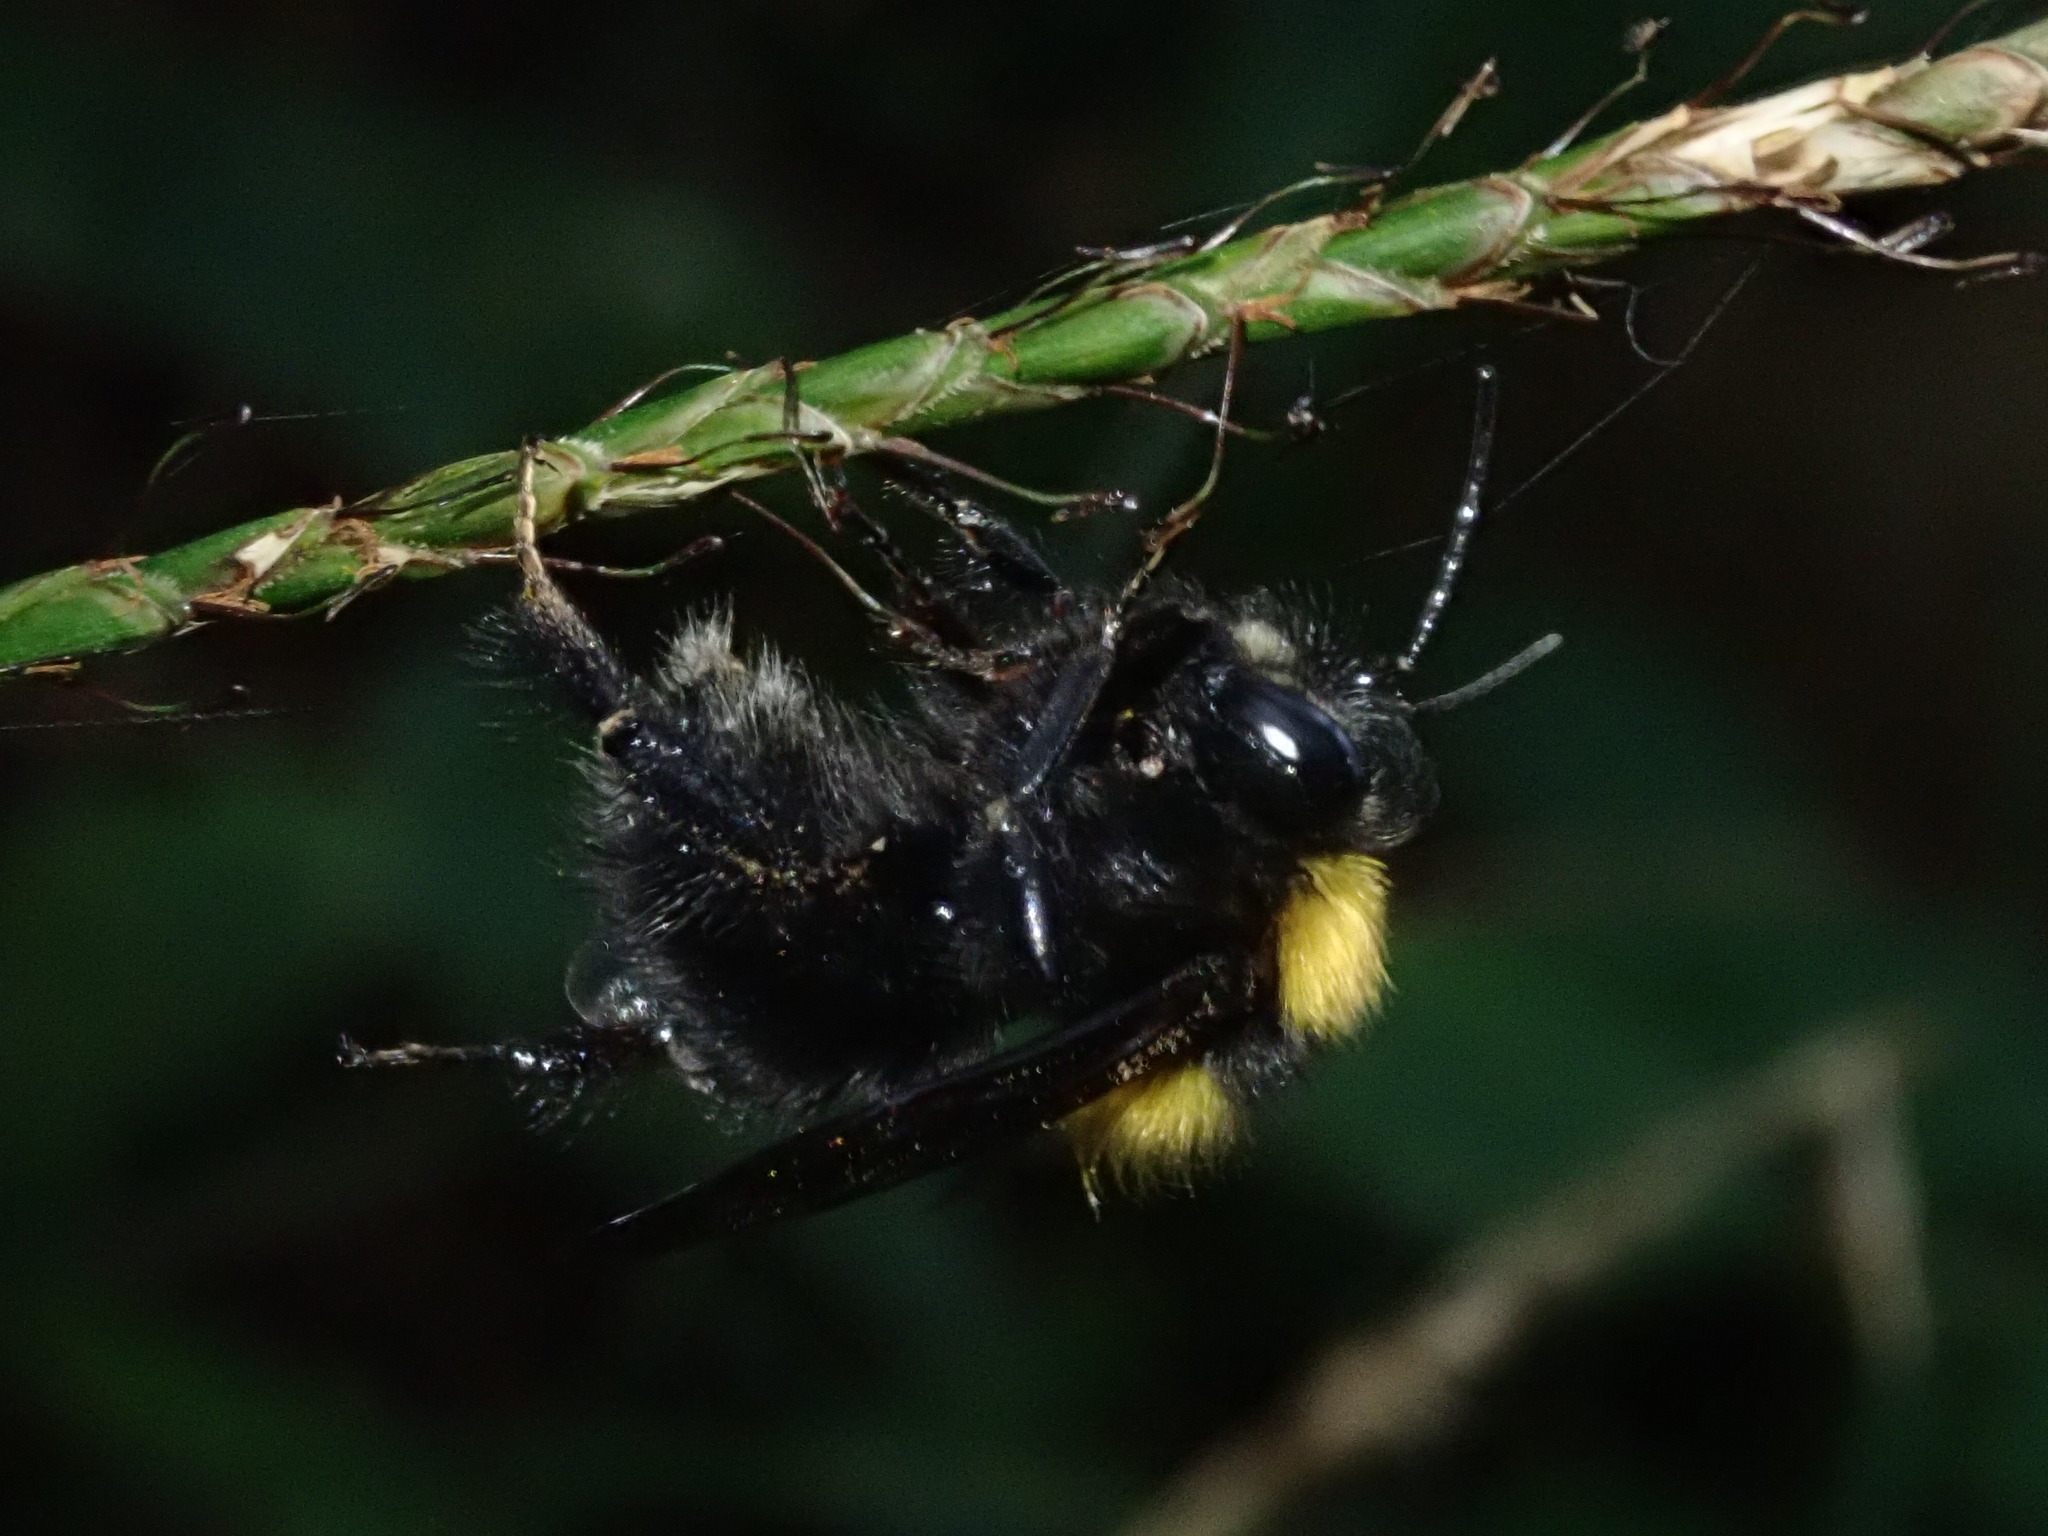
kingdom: Animalia
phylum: Arthropoda
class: Insecta
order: Hymenoptera
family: Apidae
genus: Bombus
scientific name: Bombus hortulanus
